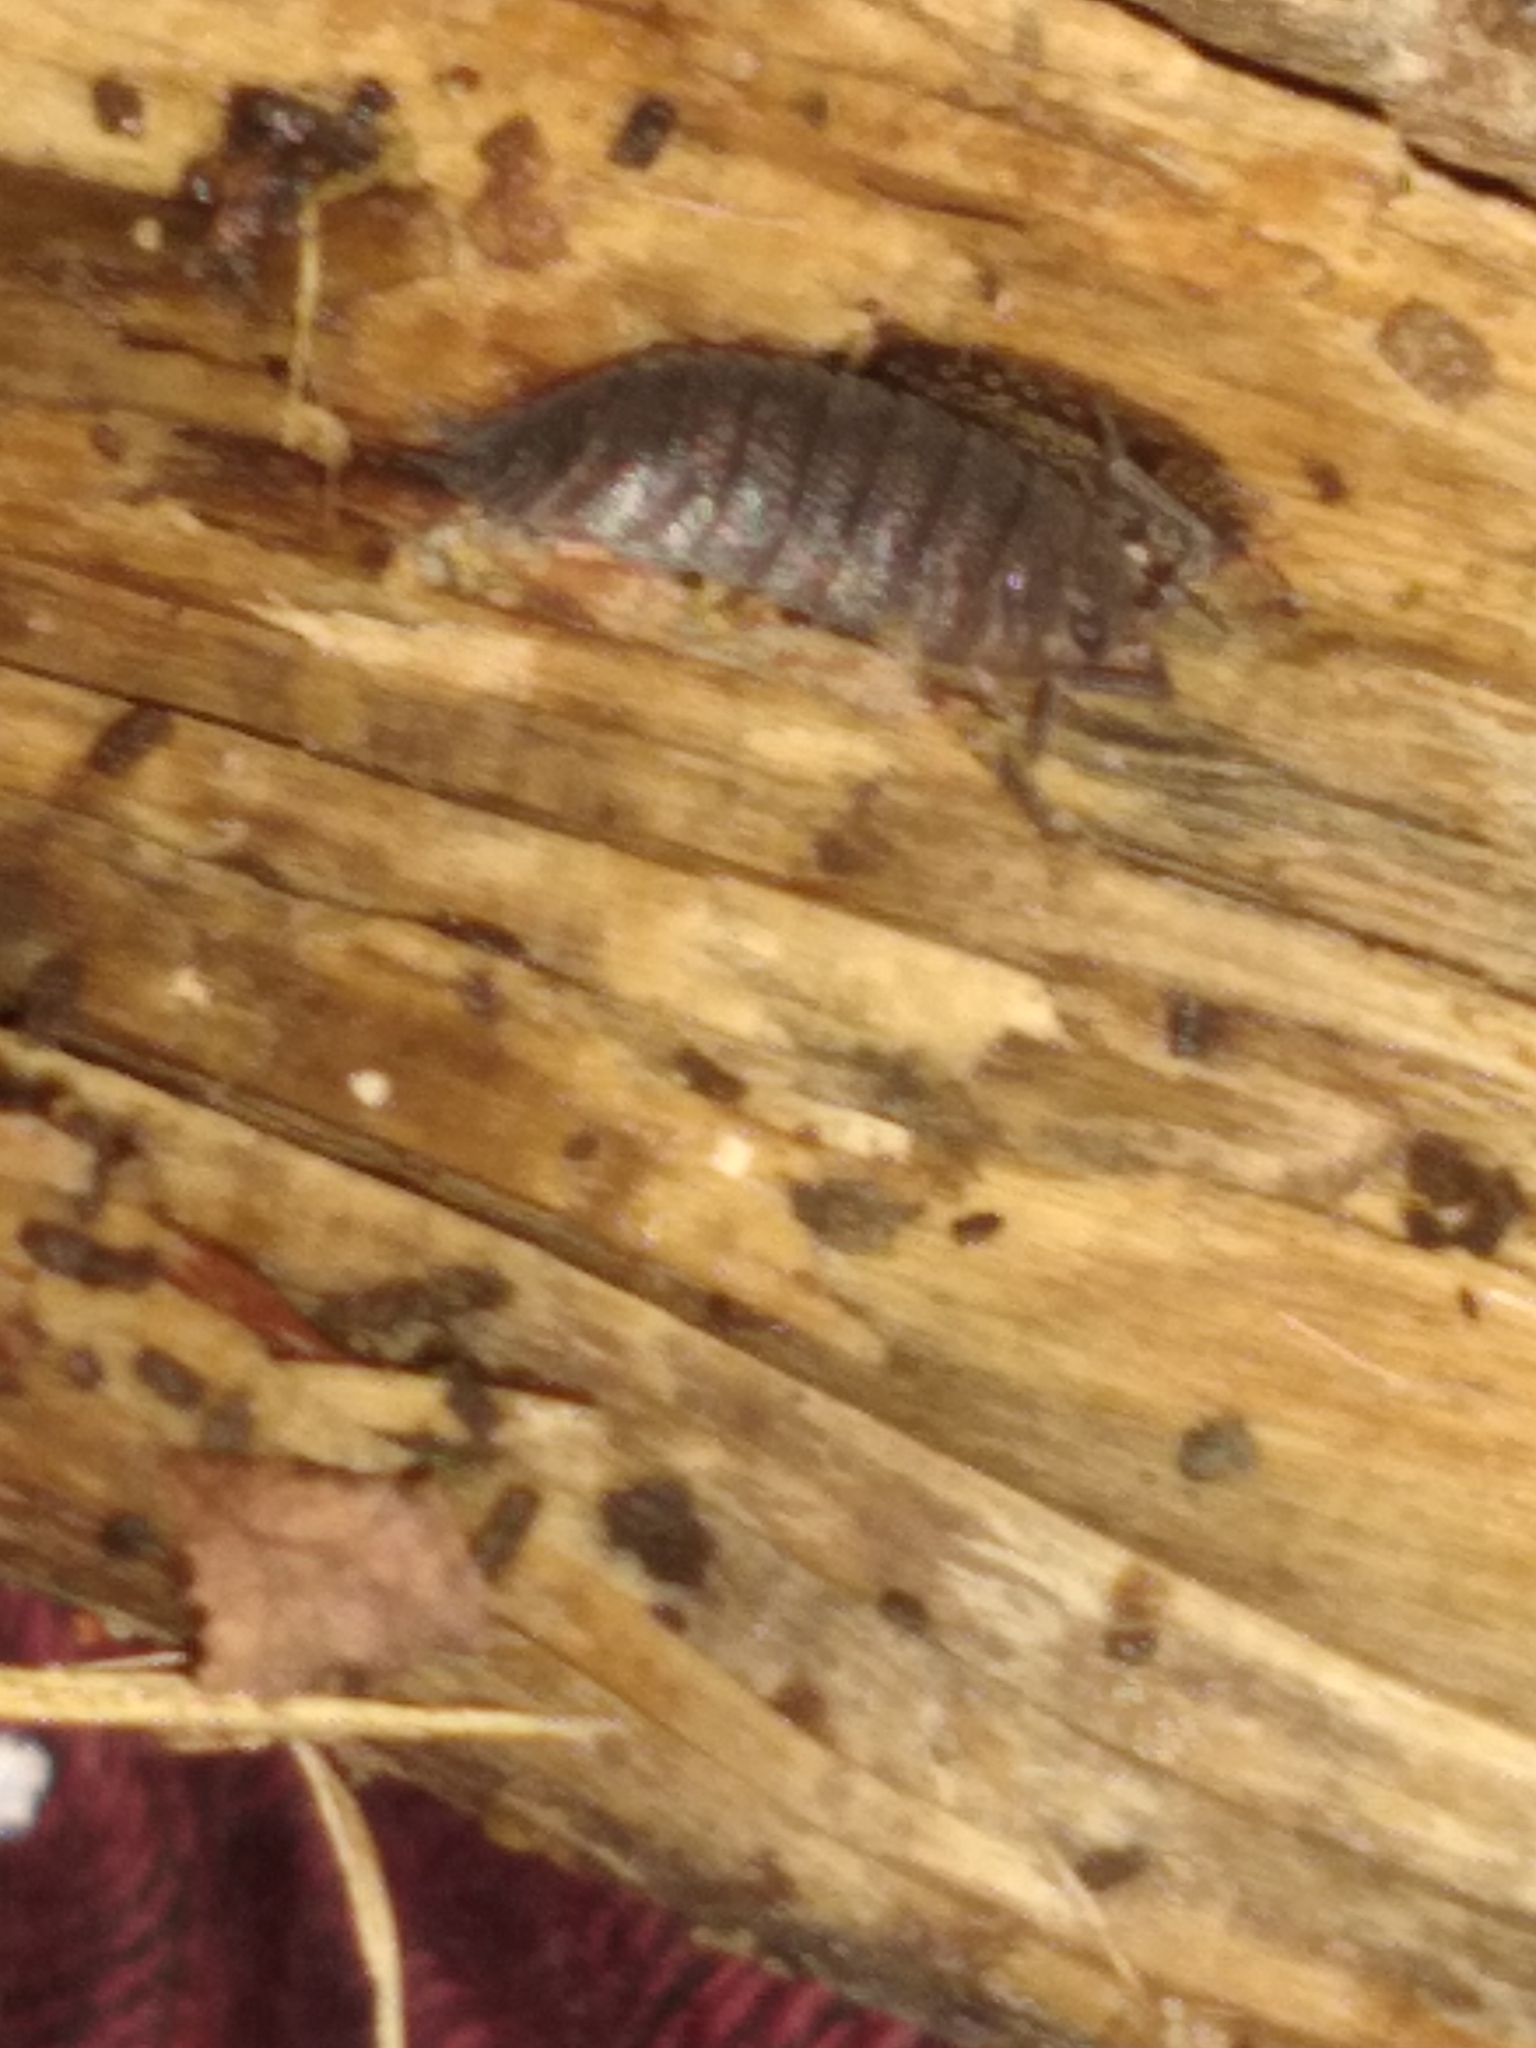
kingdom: Animalia
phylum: Arthropoda
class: Malacostraca
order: Isopoda
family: Porcellionidae
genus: Porcellio
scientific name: Porcellio scaber
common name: Common rough woodlouse
